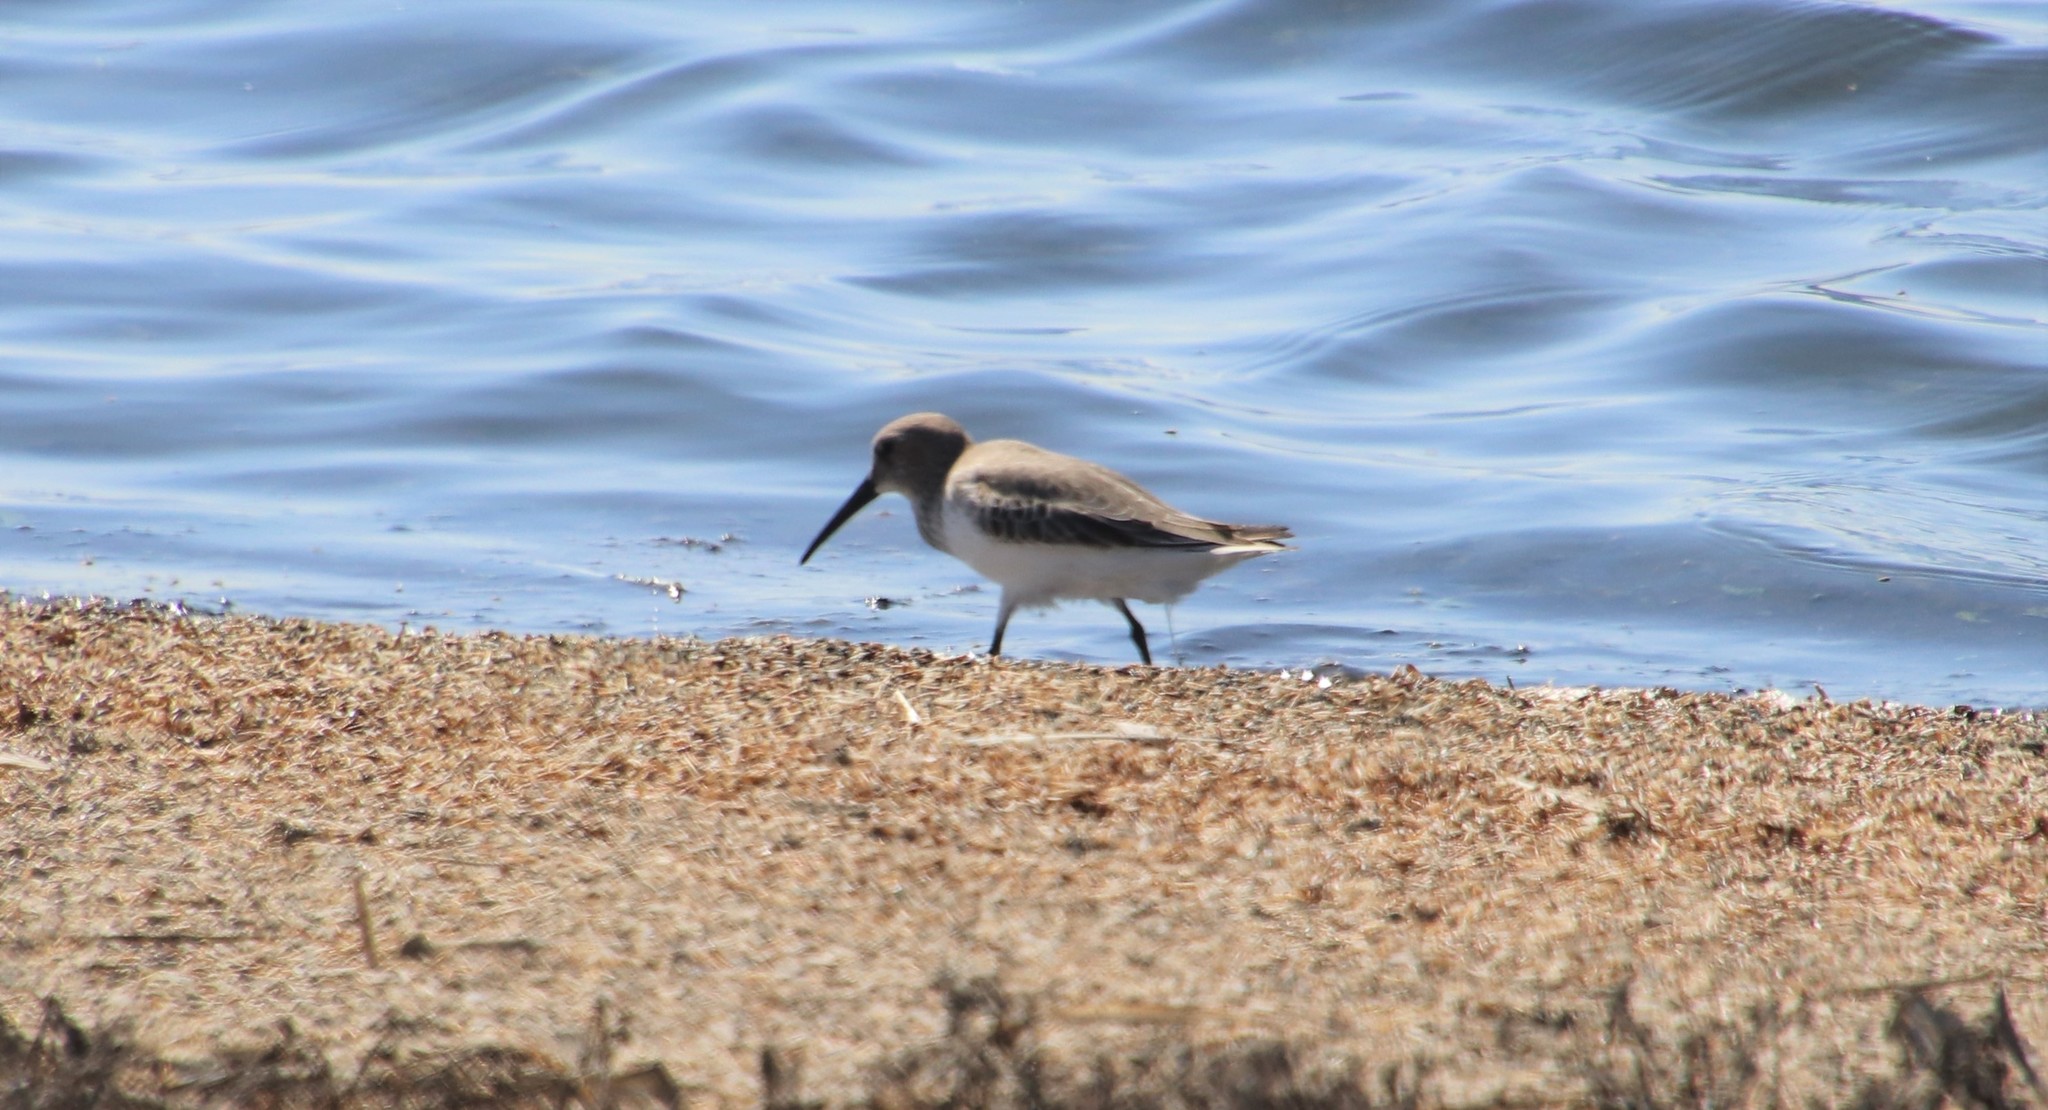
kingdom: Animalia
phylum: Chordata
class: Aves
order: Charadriiformes
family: Scolopacidae
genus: Calidris
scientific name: Calidris alpina
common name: Dunlin
